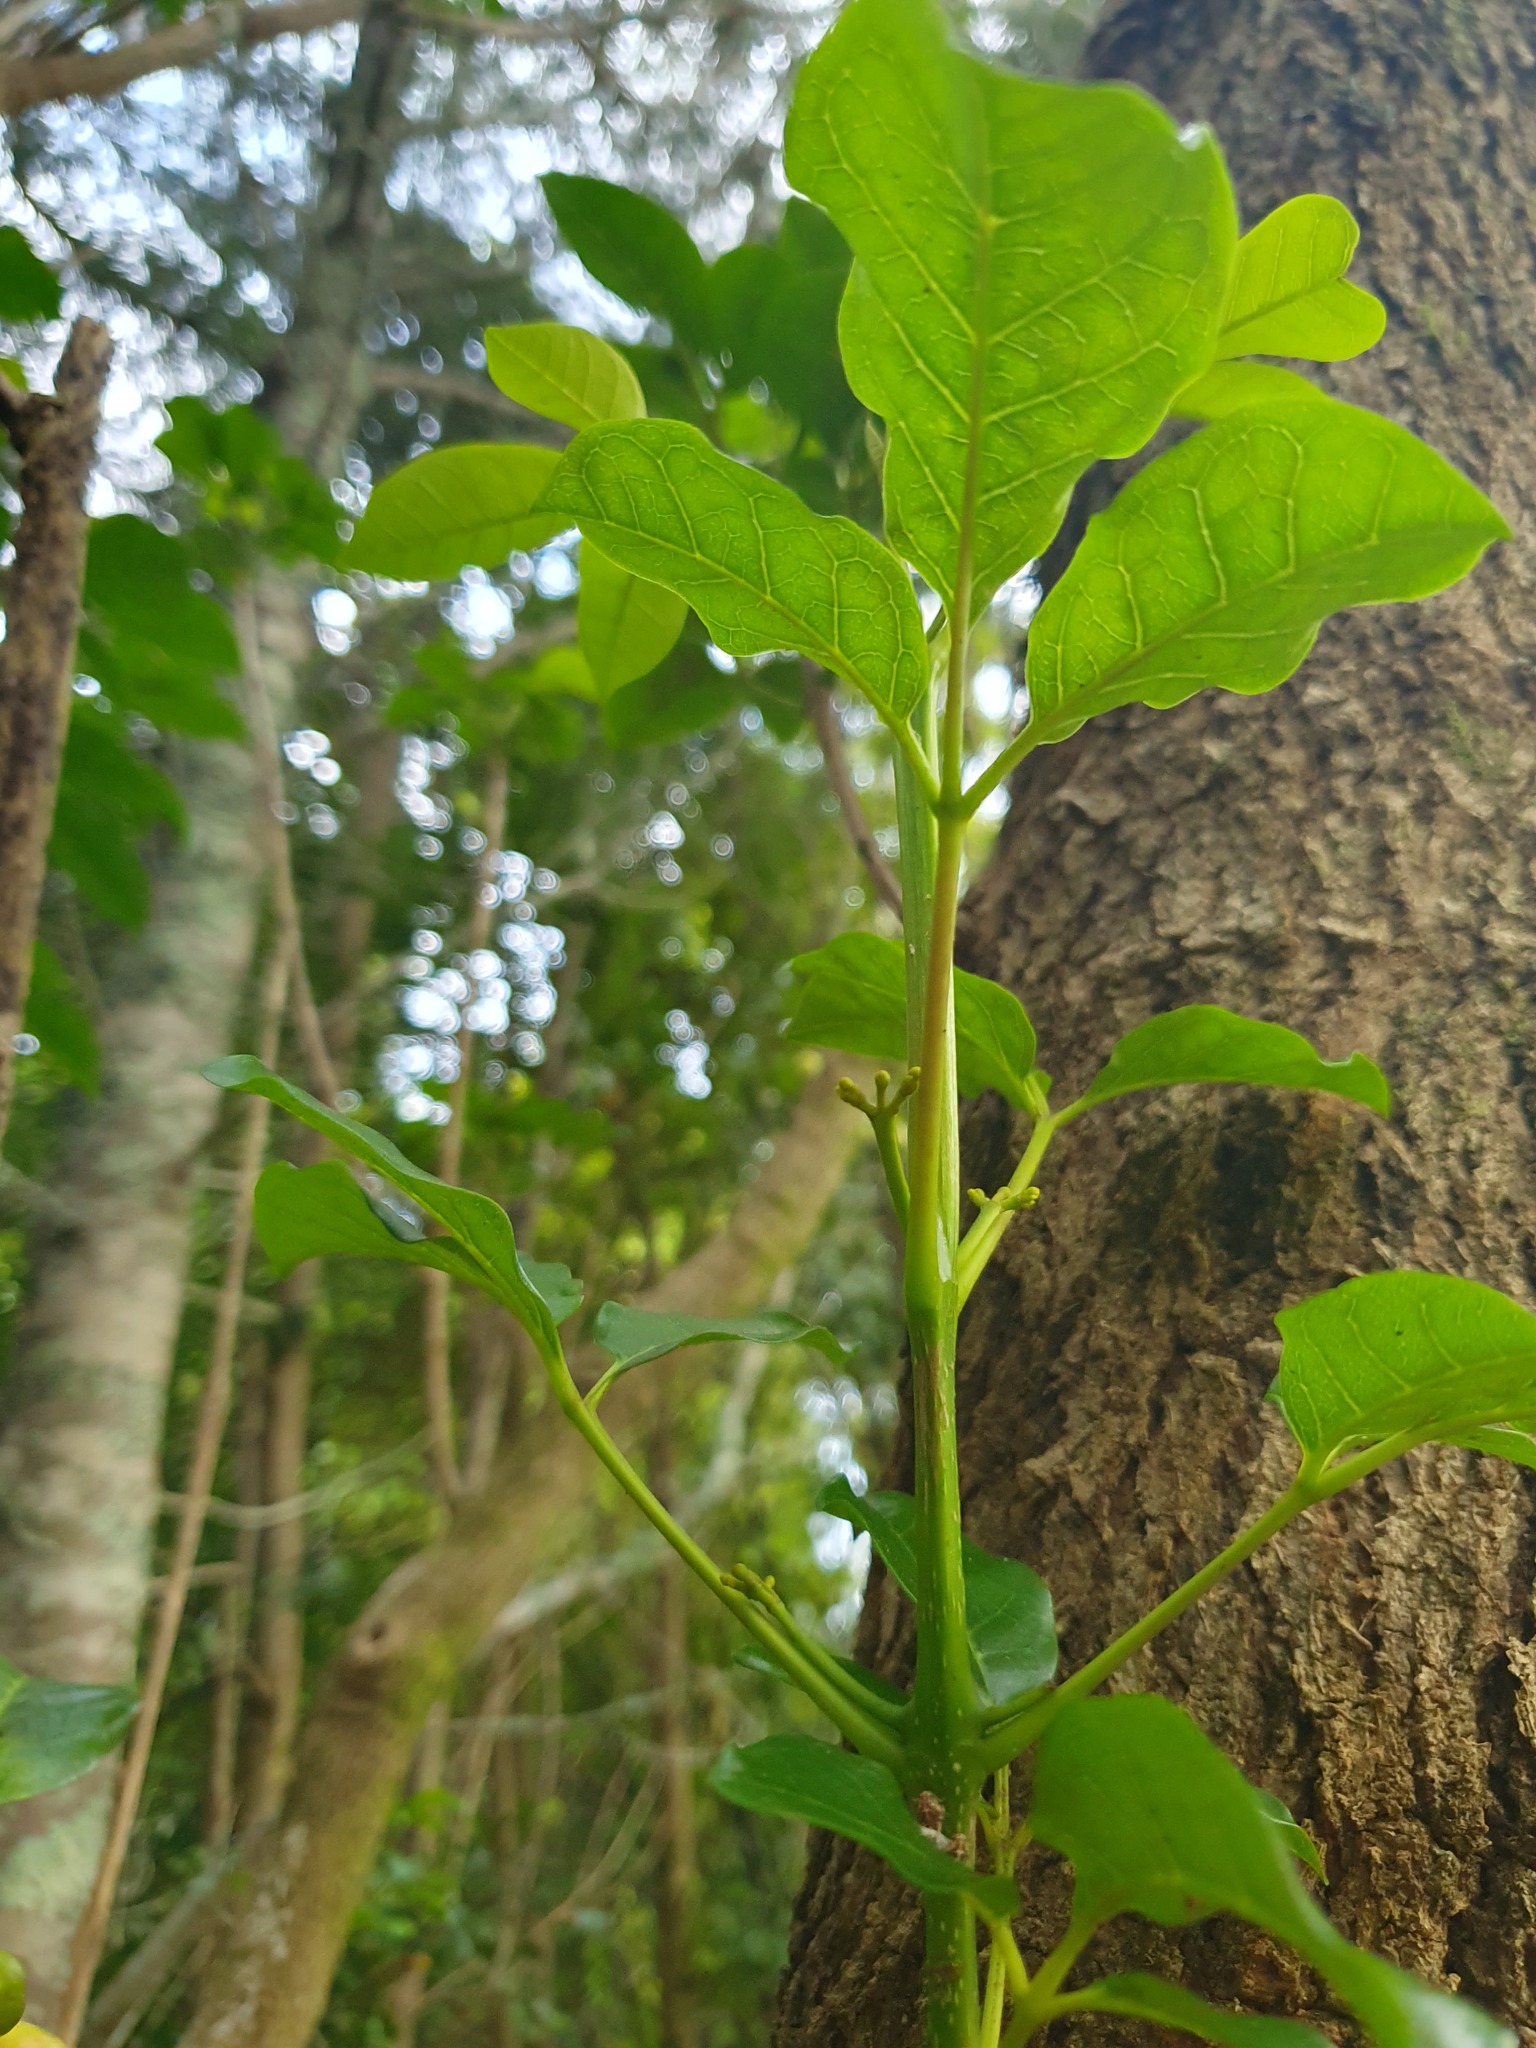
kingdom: Plantae
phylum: Tracheophyta
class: Magnoliopsida
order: Lamiales
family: Lamiaceae
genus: Vitex
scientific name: Vitex lucens
